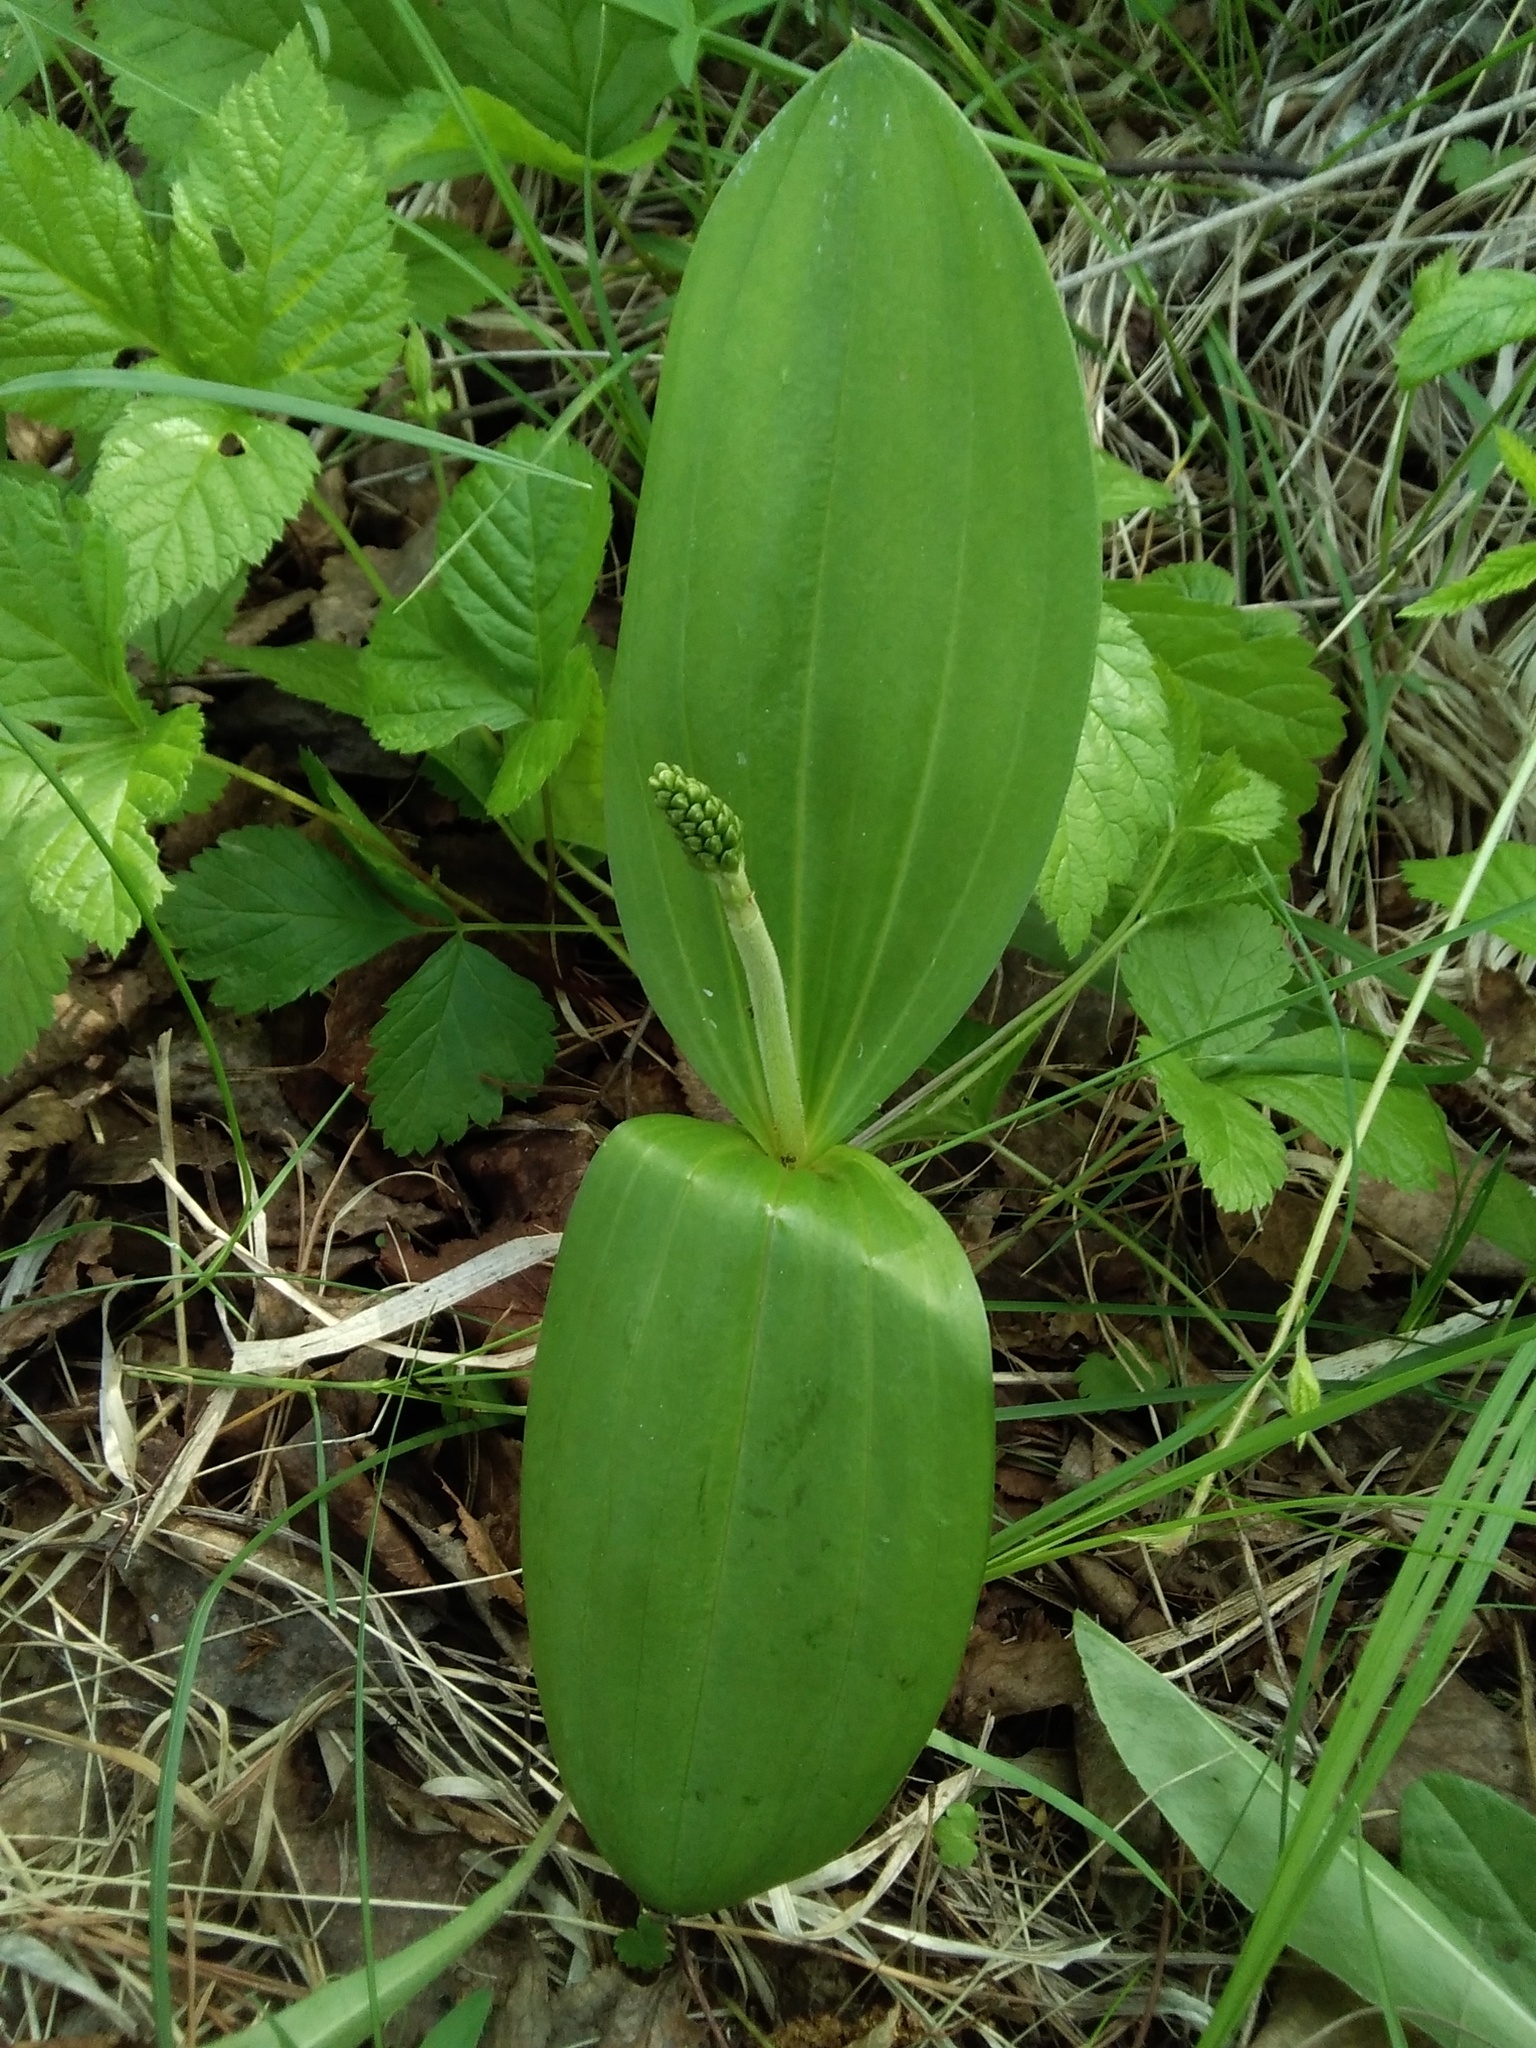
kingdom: Plantae
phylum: Tracheophyta
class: Liliopsida
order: Asparagales
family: Orchidaceae
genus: Neottia
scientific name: Neottia ovata
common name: Common twayblade
